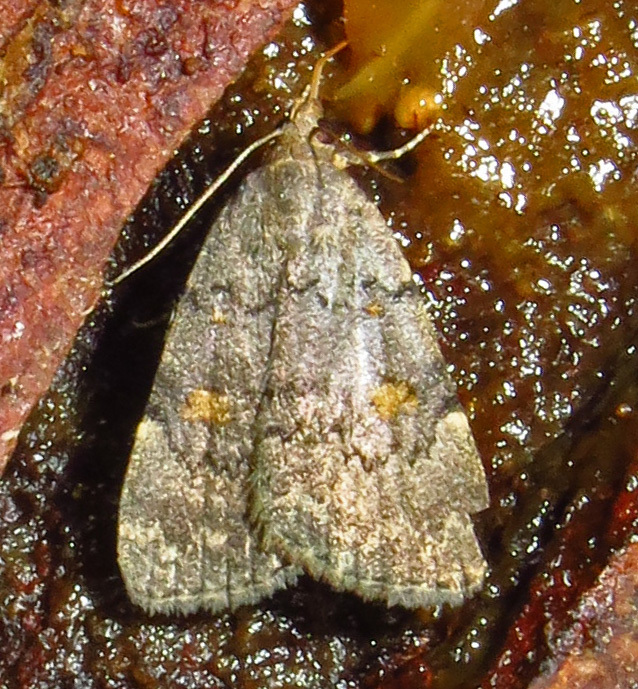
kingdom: Animalia
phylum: Arthropoda
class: Insecta
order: Lepidoptera
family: Erebidae
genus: Idia
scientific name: Idia aemula
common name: Common idia moth
